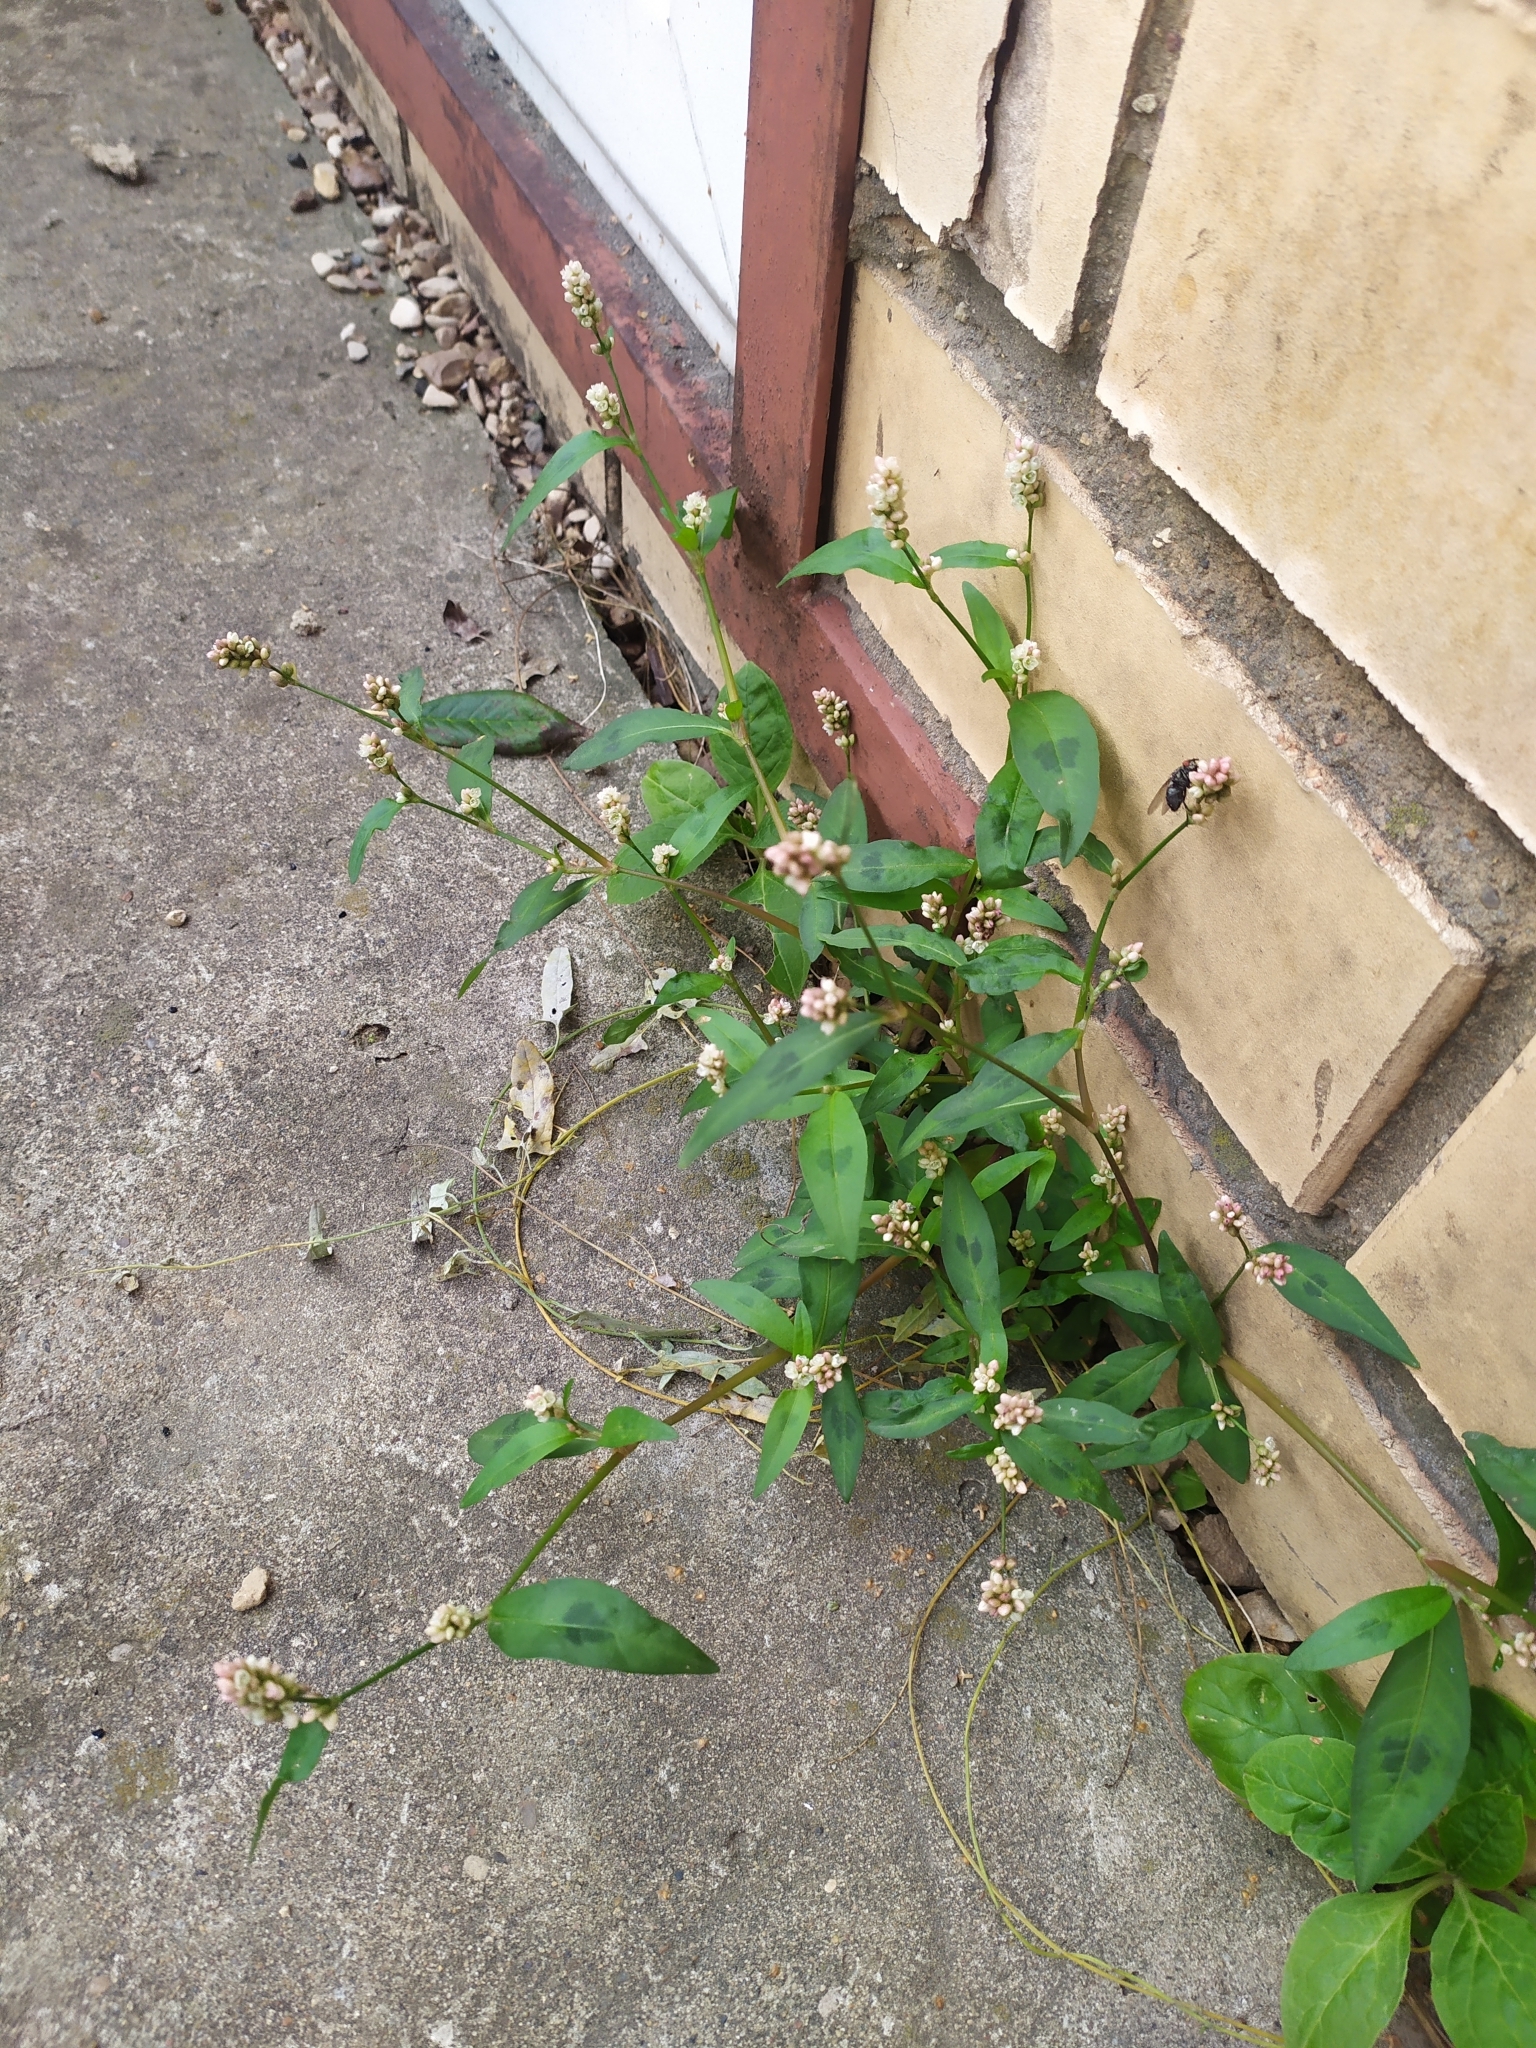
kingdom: Plantae
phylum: Tracheophyta
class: Magnoliopsida
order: Caryophyllales
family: Polygonaceae
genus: Persicaria
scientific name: Persicaria maculosa
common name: Redshank
